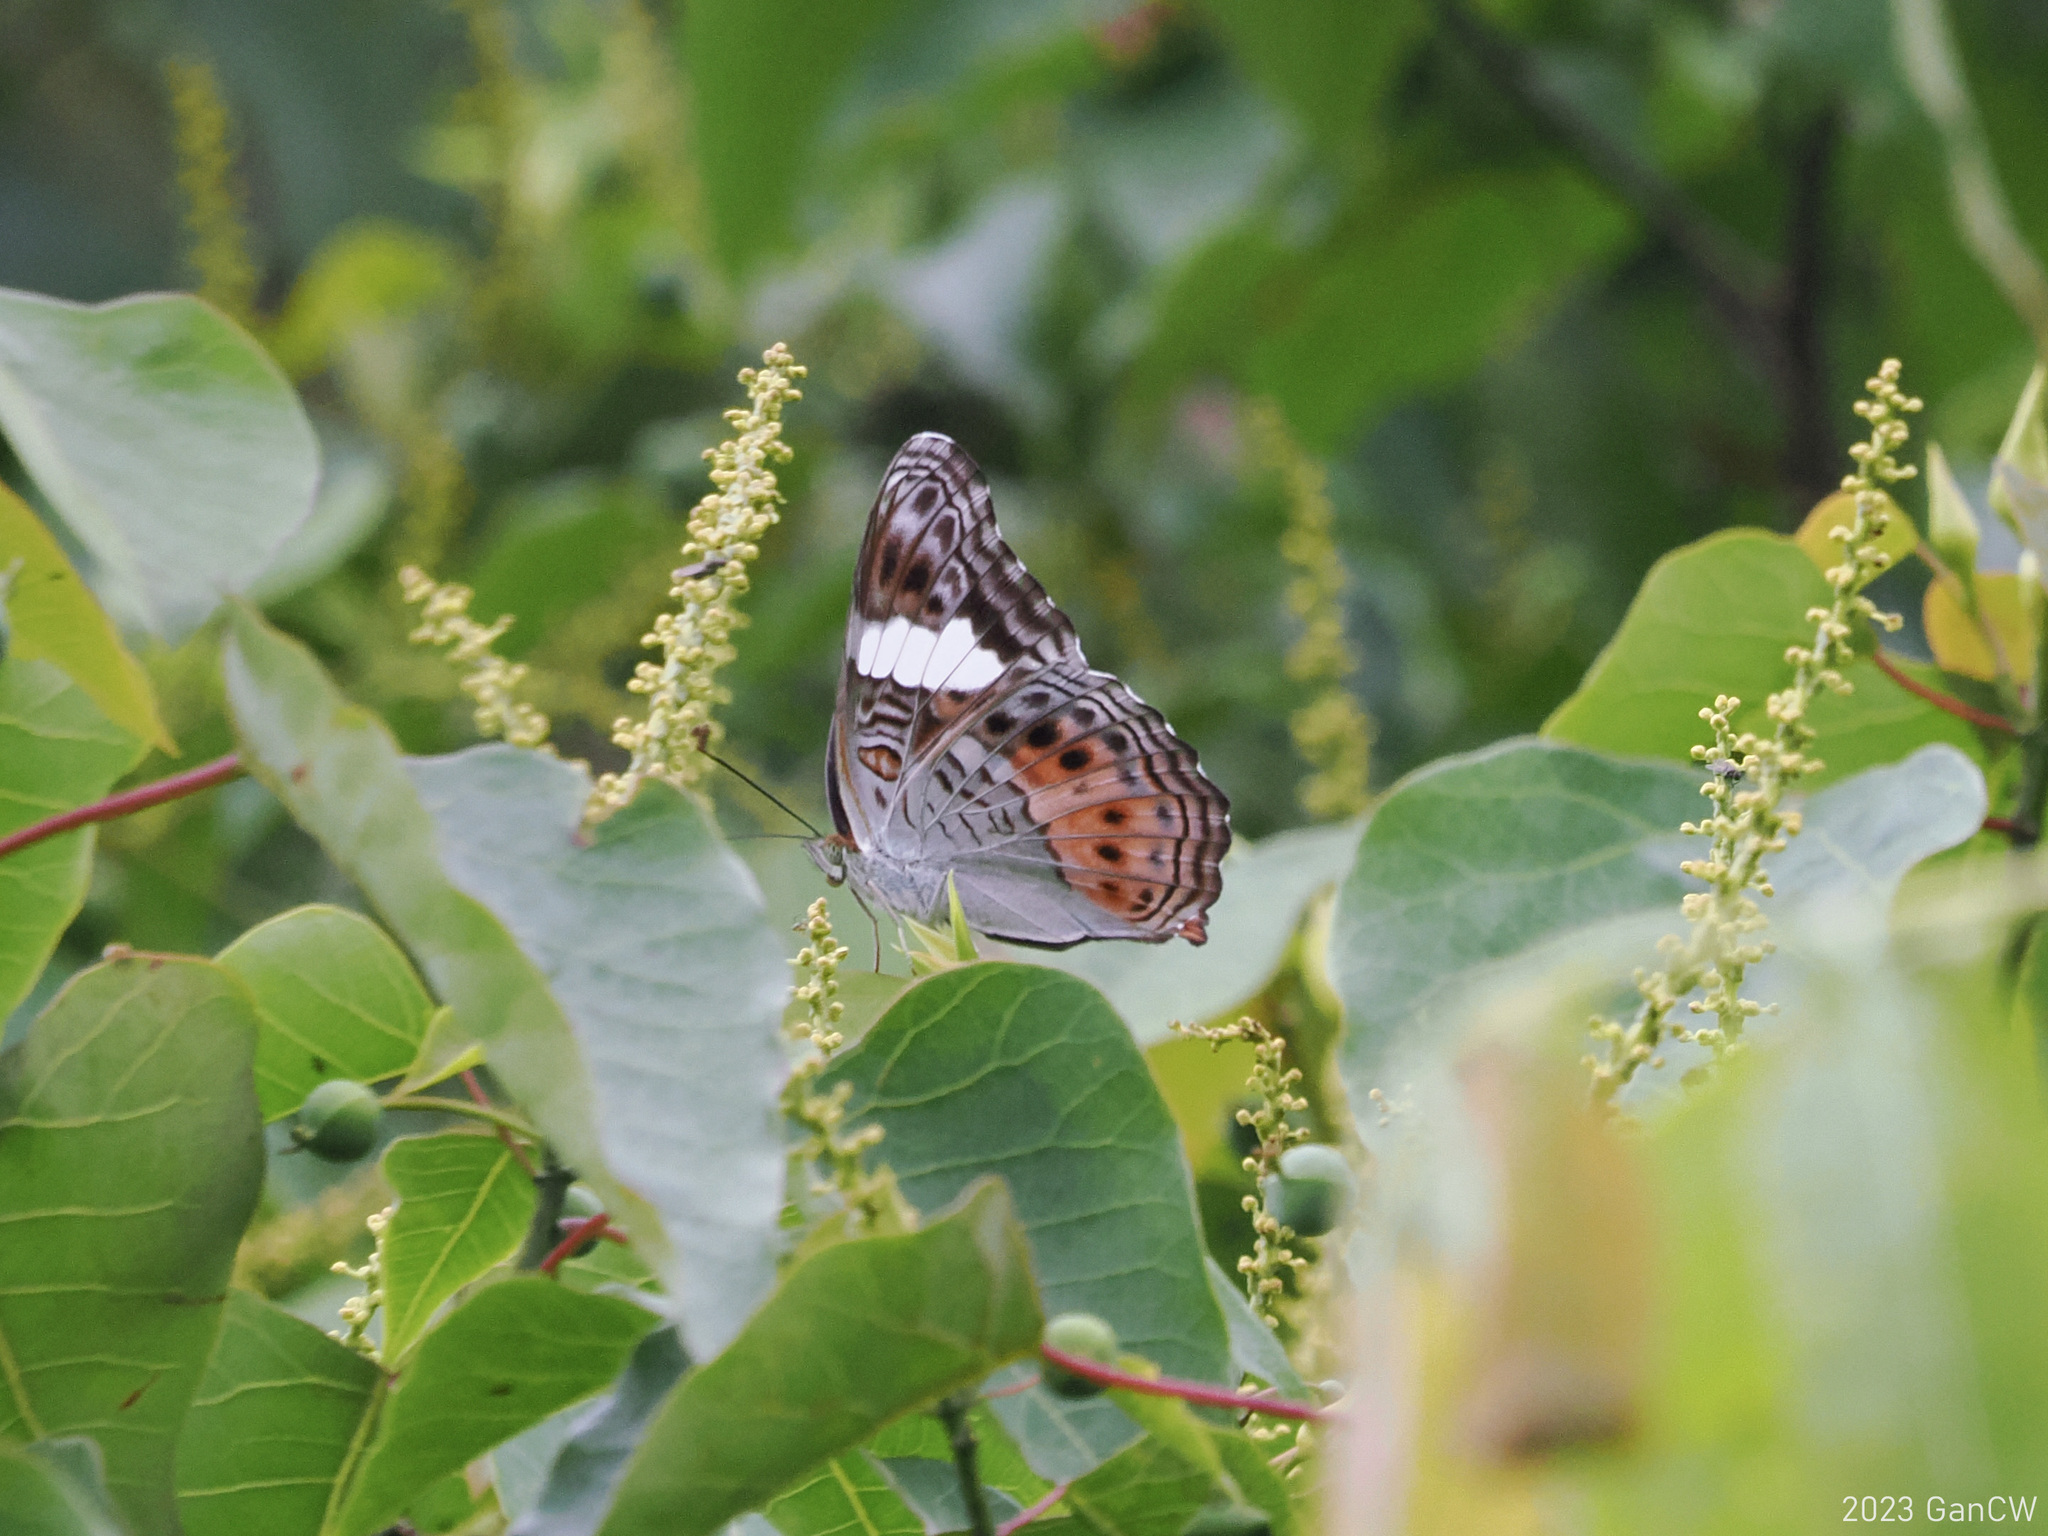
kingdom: Animalia
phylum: Arthropoda
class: Insecta
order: Lepidoptera
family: Nymphalidae
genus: Limenitis
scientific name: Limenitis Lamasia lyncides
